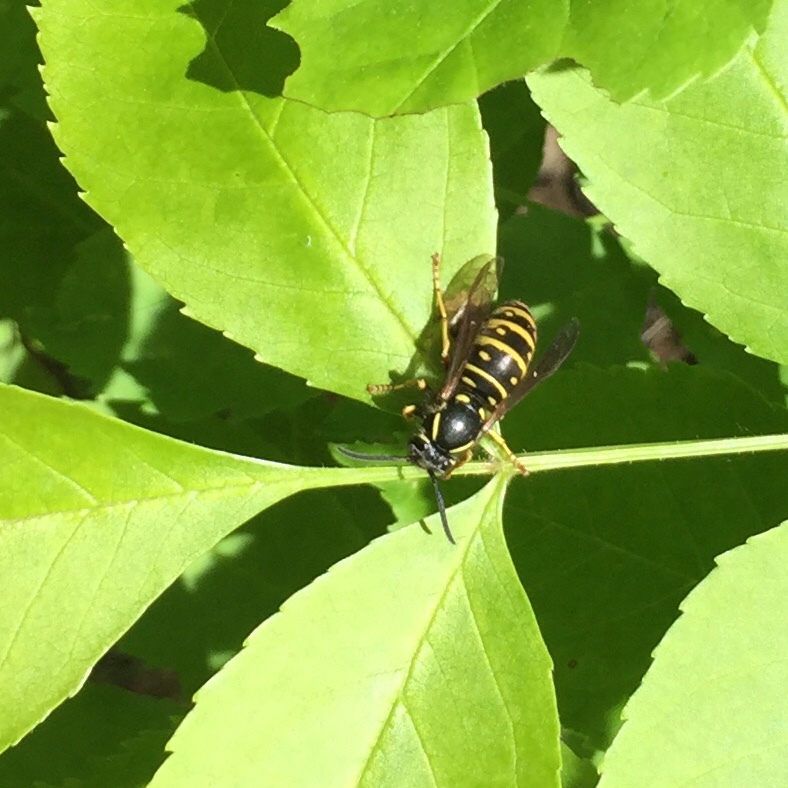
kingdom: Animalia
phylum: Arthropoda
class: Insecta
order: Hymenoptera
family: Vespidae
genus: Vespula
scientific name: Vespula acadica
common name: Forest yellowjacket
